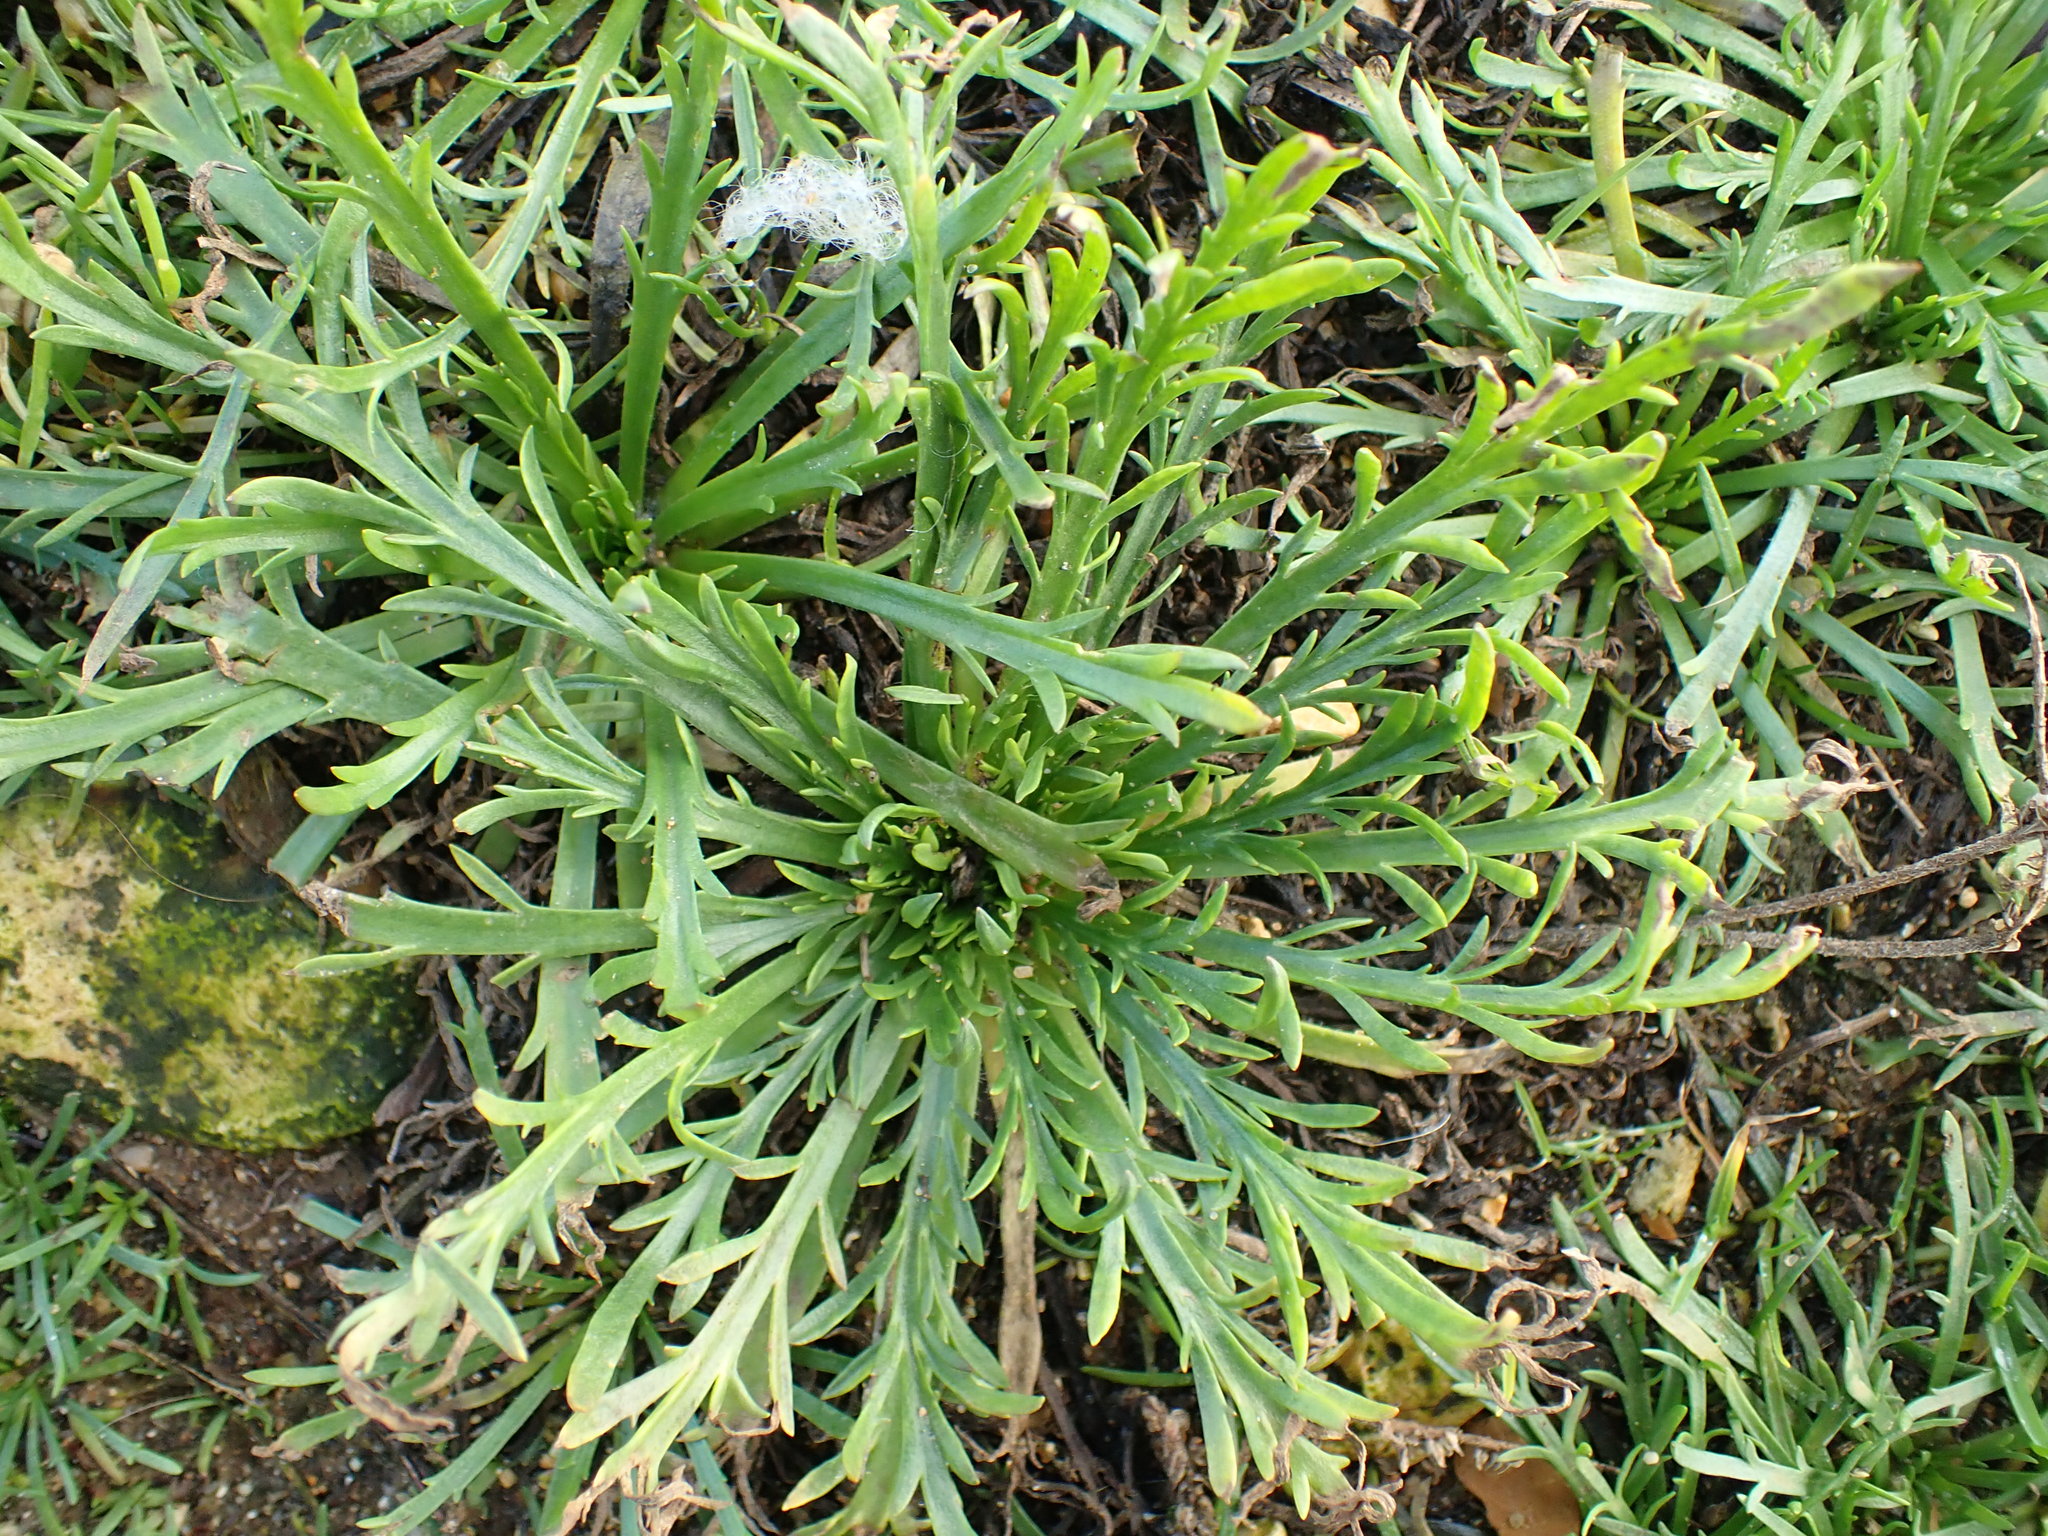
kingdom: Plantae
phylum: Tracheophyta
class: Magnoliopsida
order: Lamiales
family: Plantaginaceae
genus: Plantago
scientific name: Plantago coronopus
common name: Buck's-horn plantain
